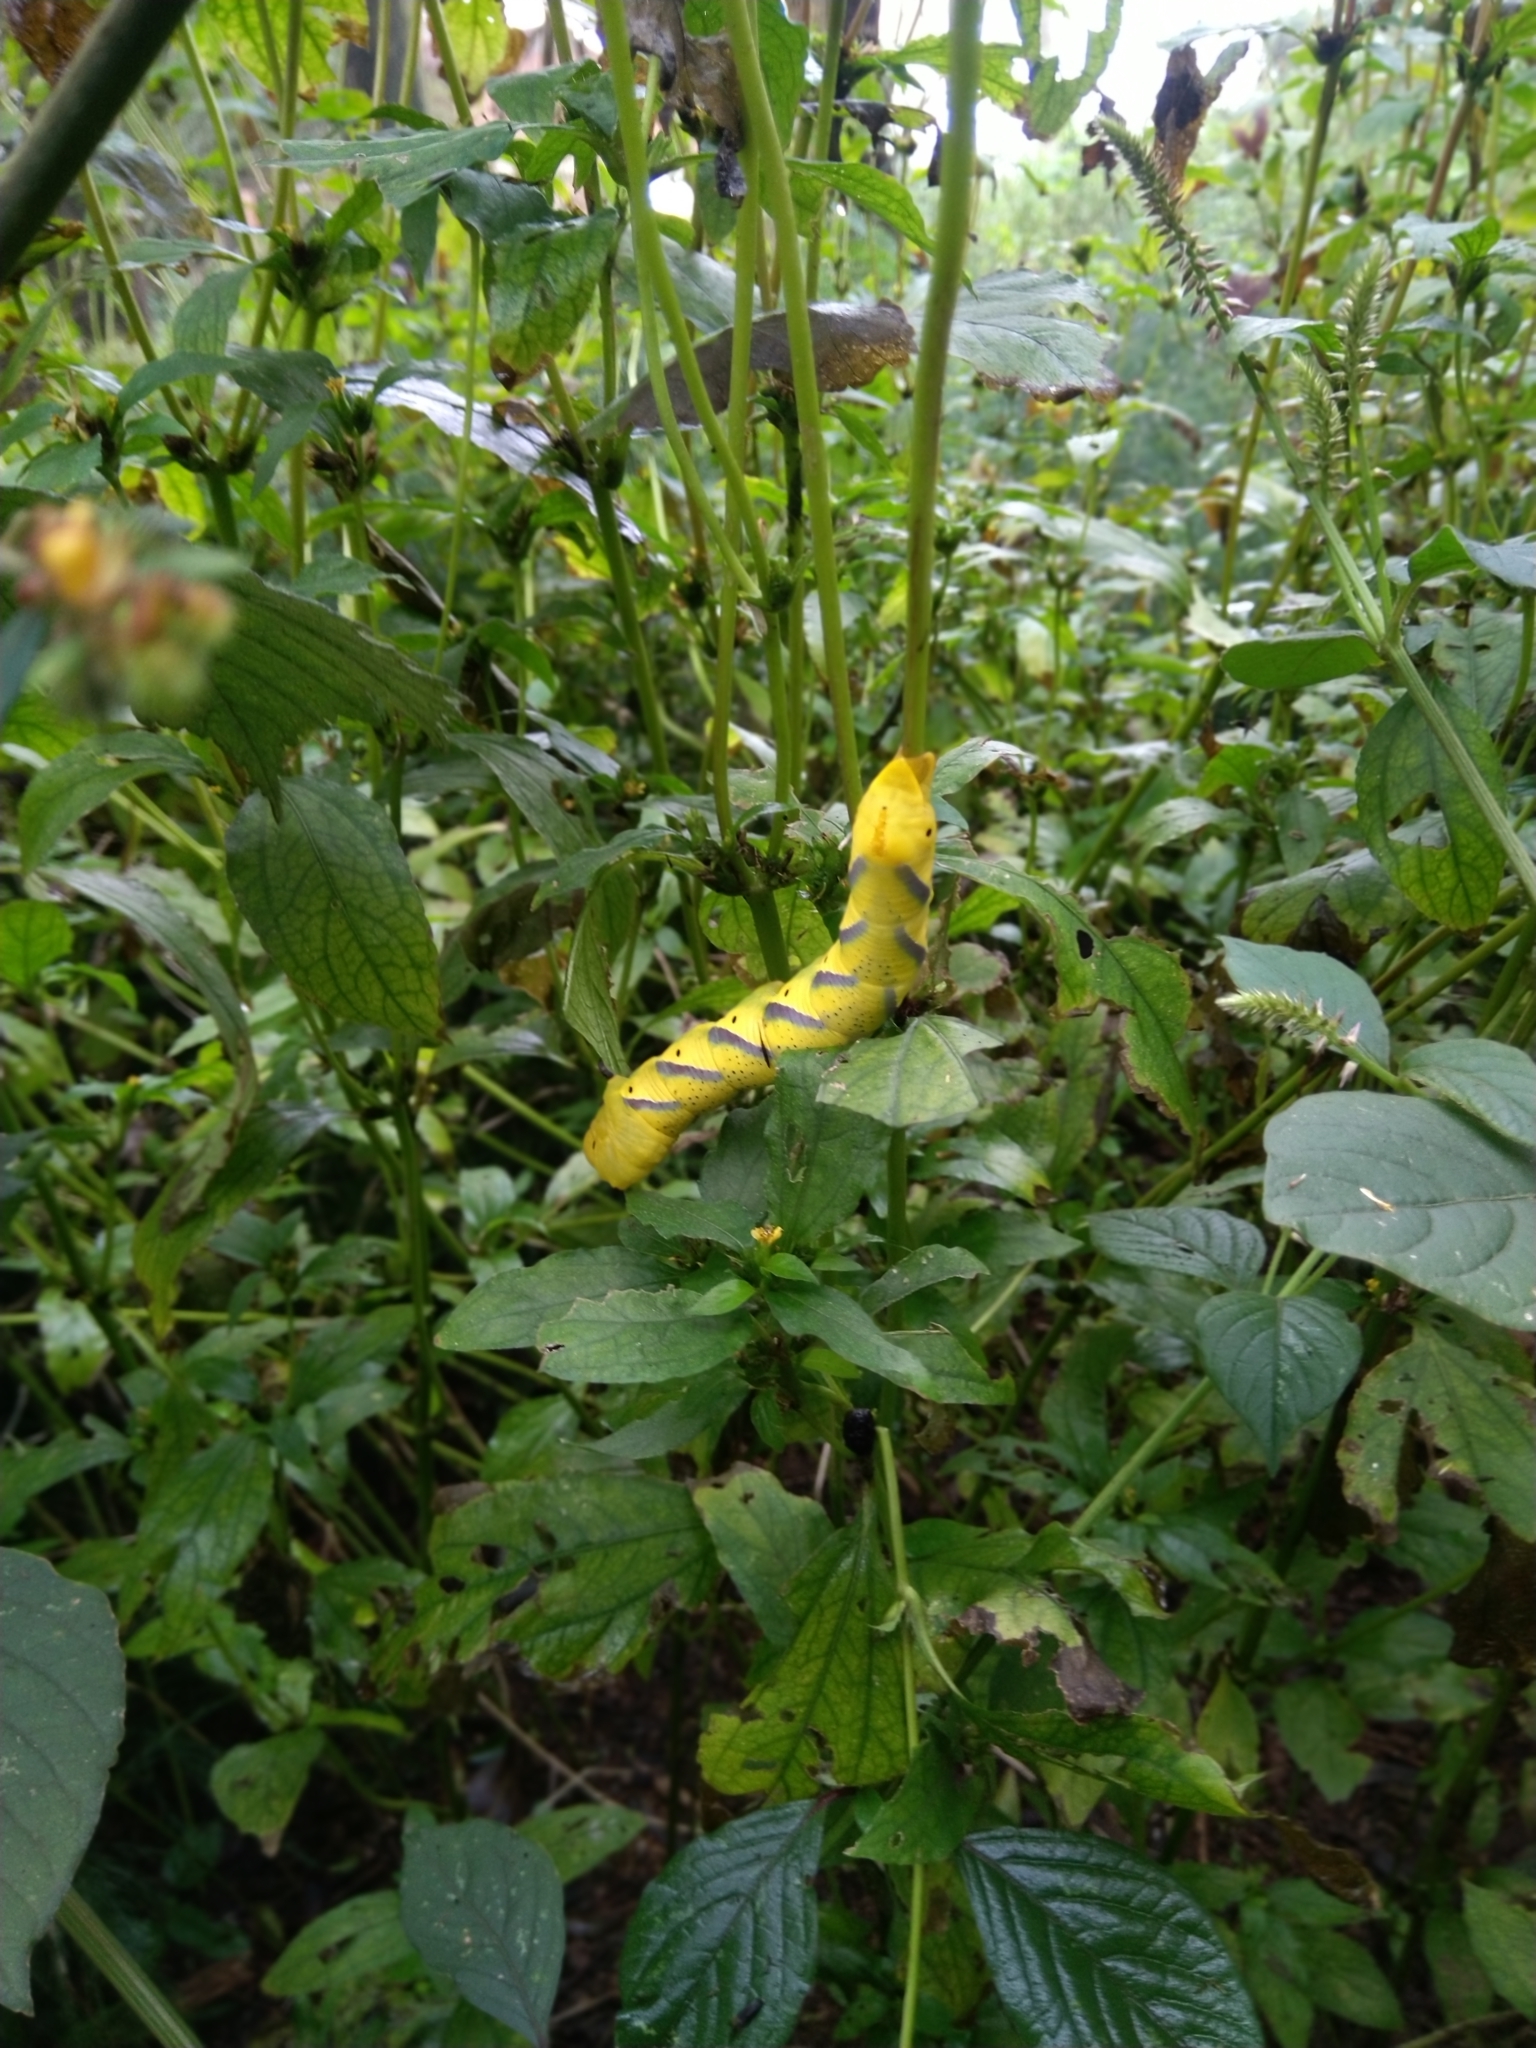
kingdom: Animalia
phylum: Arthropoda
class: Insecta
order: Lepidoptera
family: Sphingidae
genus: Acherontia
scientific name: Acherontia lachesis
